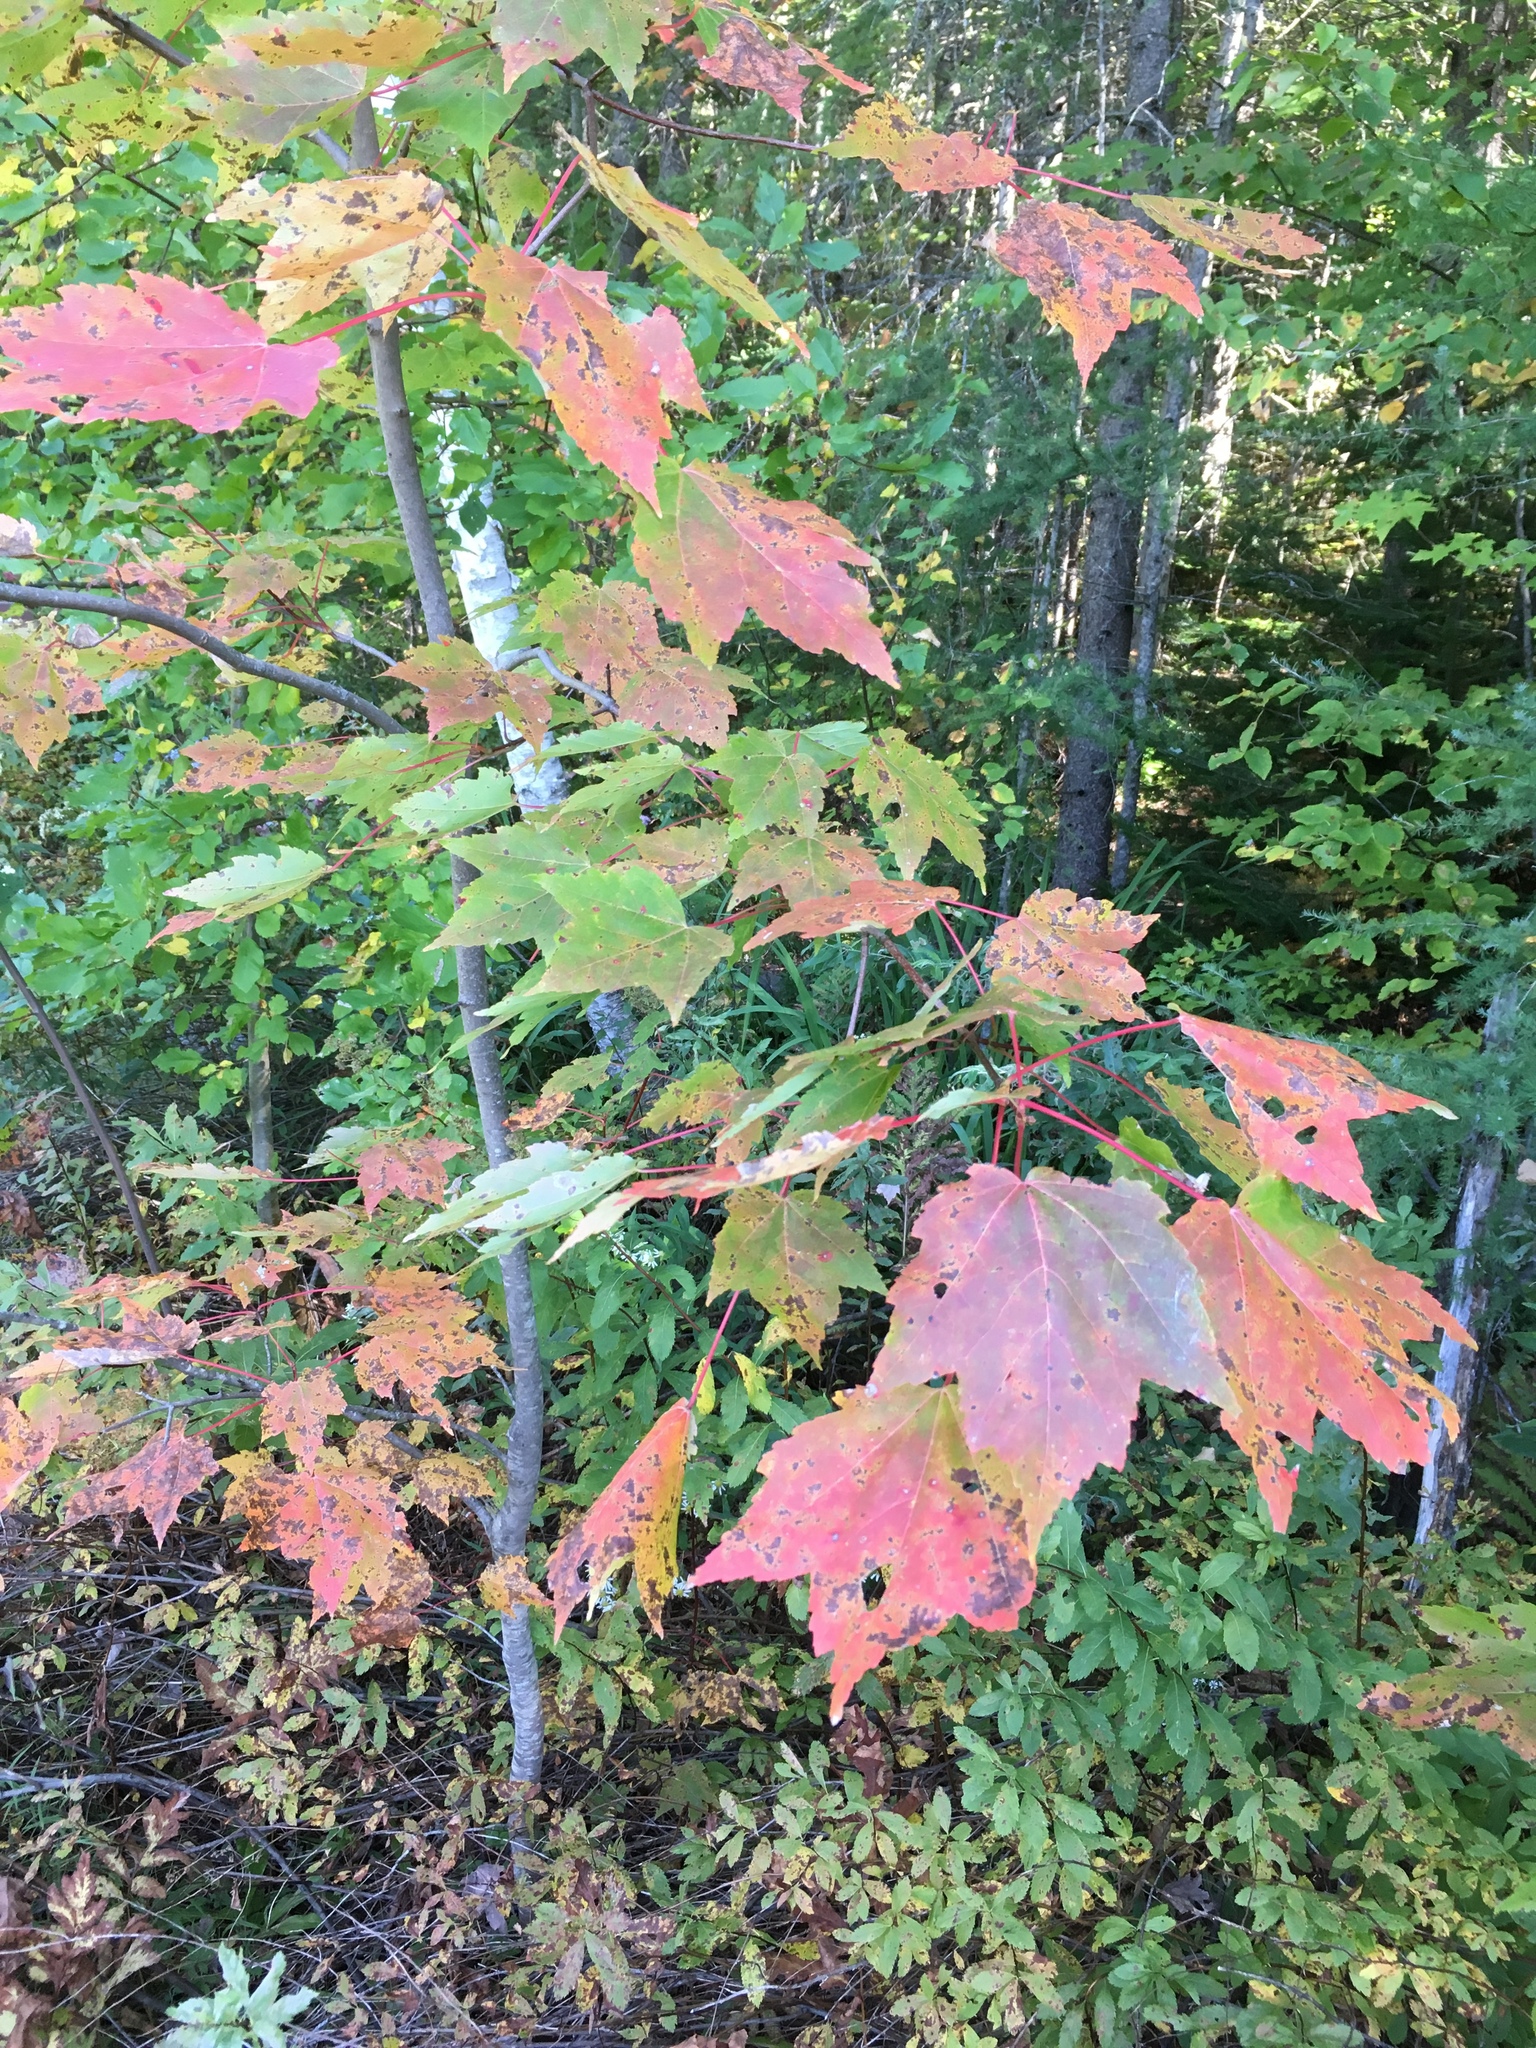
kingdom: Plantae
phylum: Tracheophyta
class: Magnoliopsida
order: Sapindales
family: Sapindaceae
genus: Acer
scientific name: Acer rubrum
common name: Red maple
